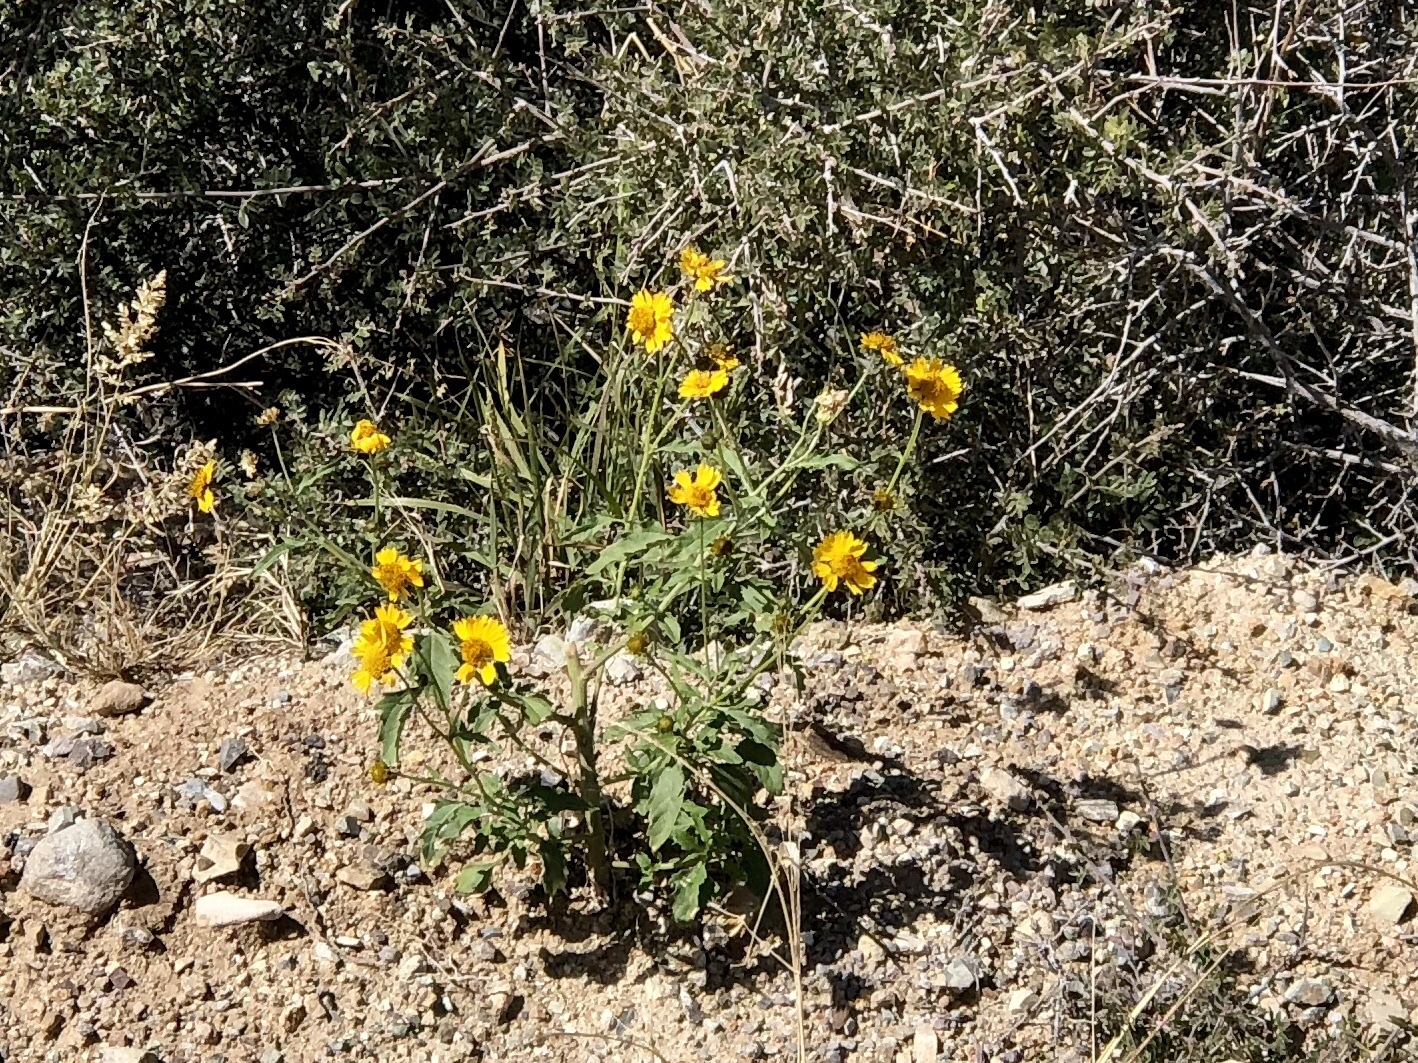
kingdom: Plantae
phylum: Tracheophyta
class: Magnoliopsida
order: Asterales
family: Asteraceae
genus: Verbesina
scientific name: Verbesina encelioides
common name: Golden crownbeard
